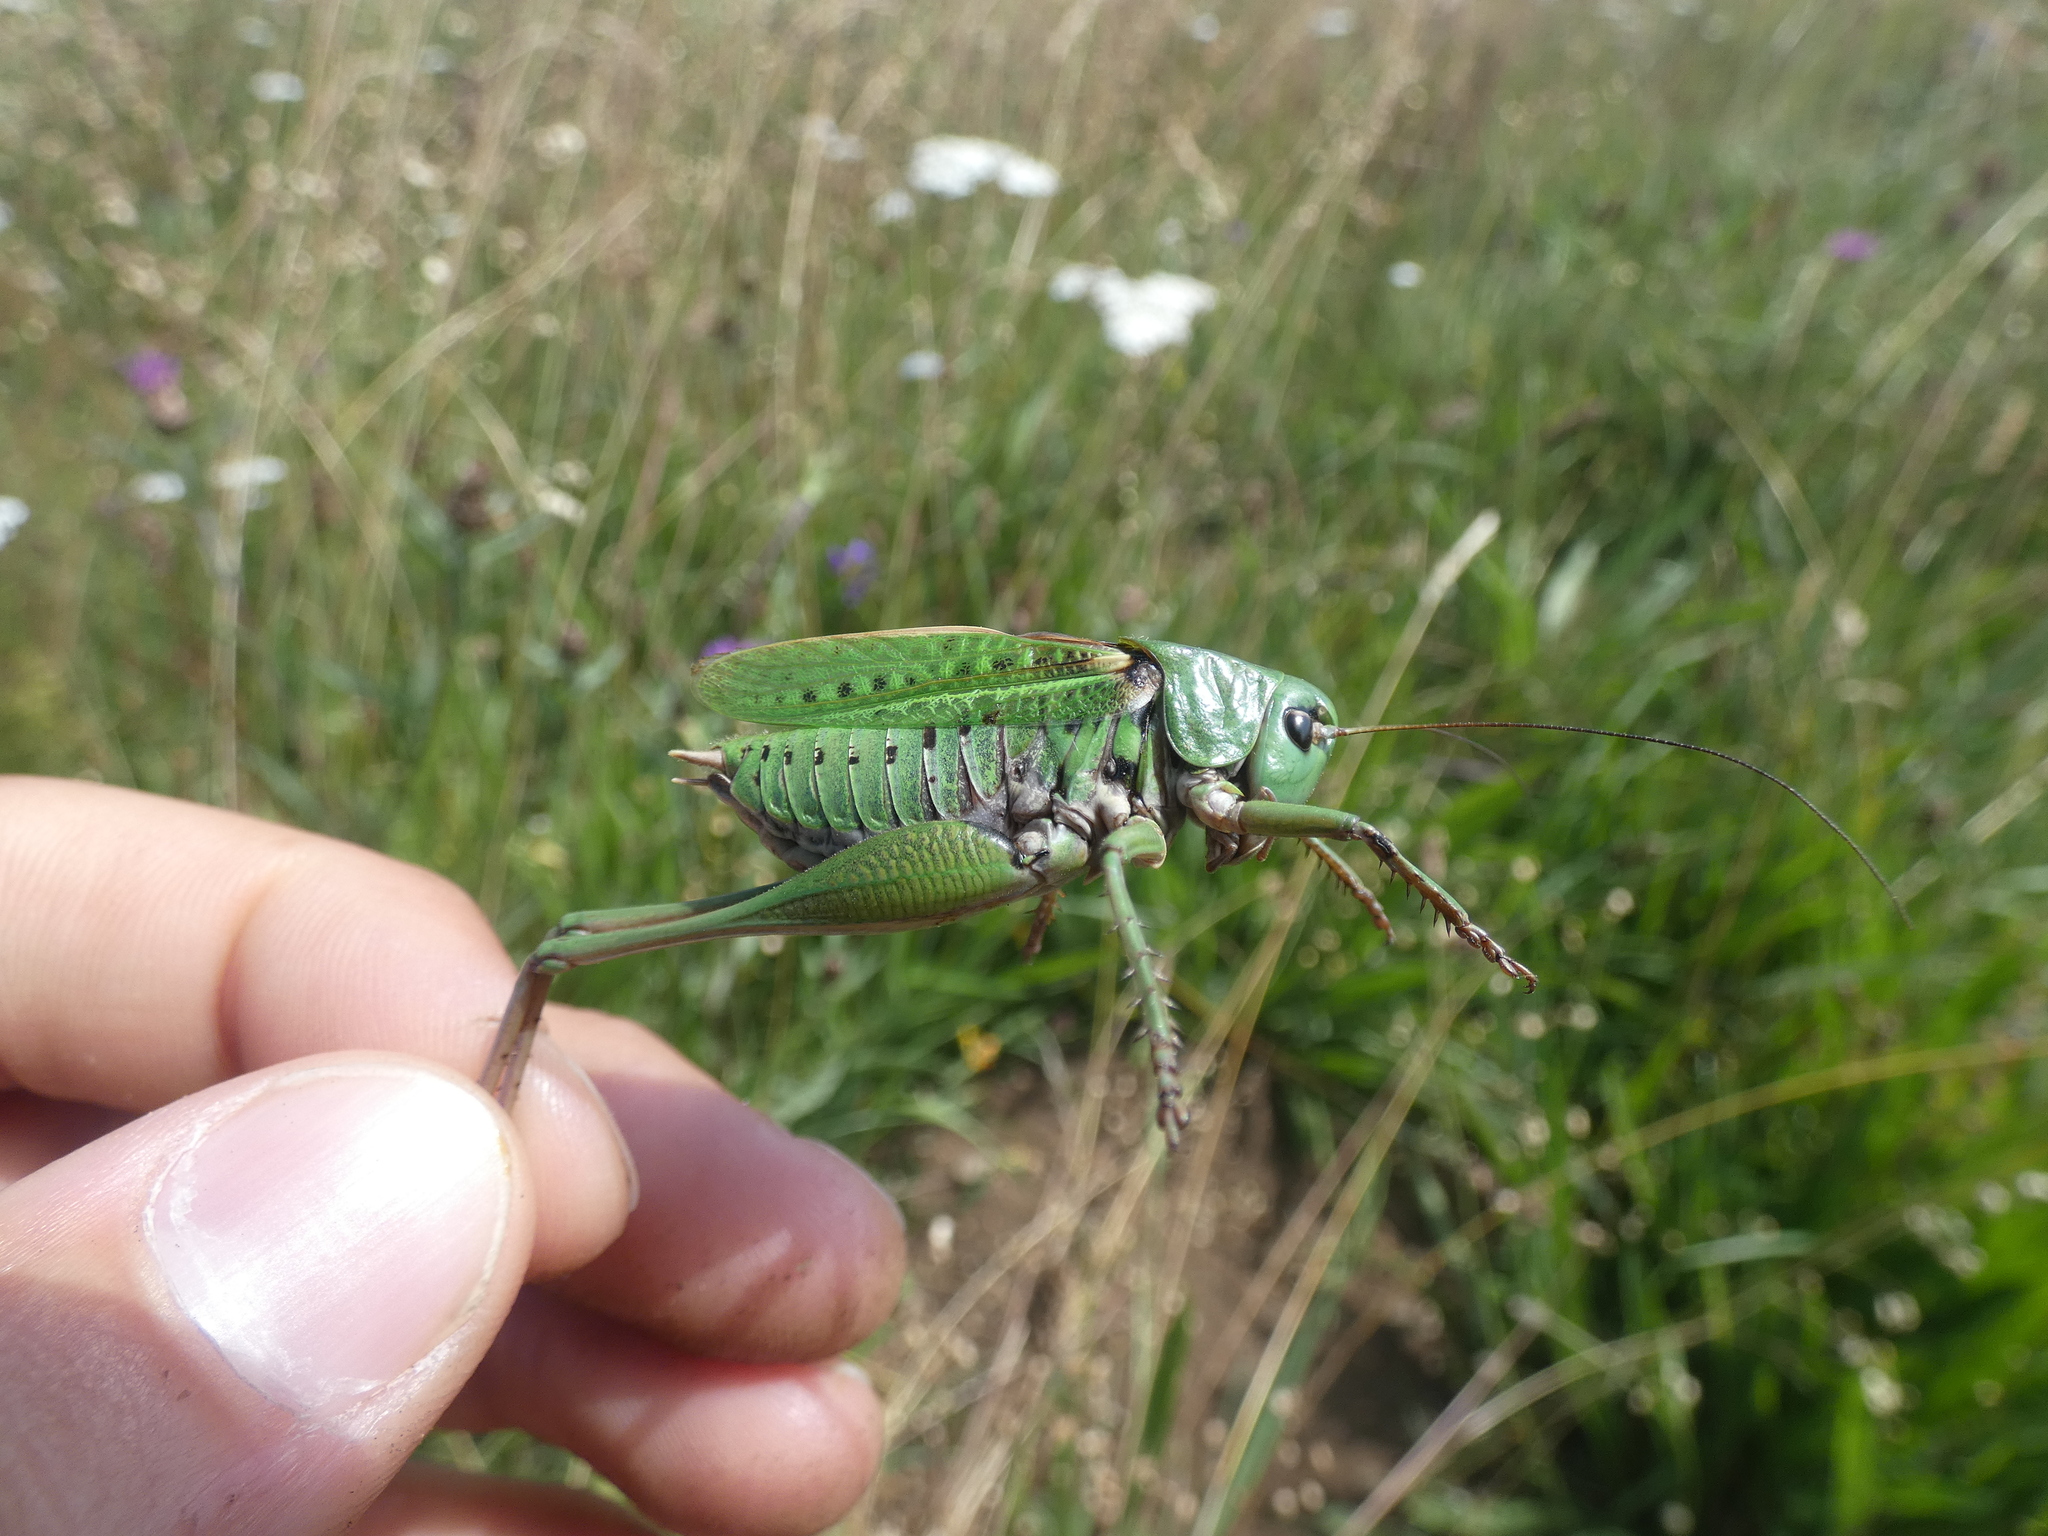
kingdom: Animalia
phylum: Arthropoda
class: Insecta
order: Orthoptera
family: Tettigoniidae
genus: Decticus
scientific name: Decticus verrucivorus
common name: Wart-biter
